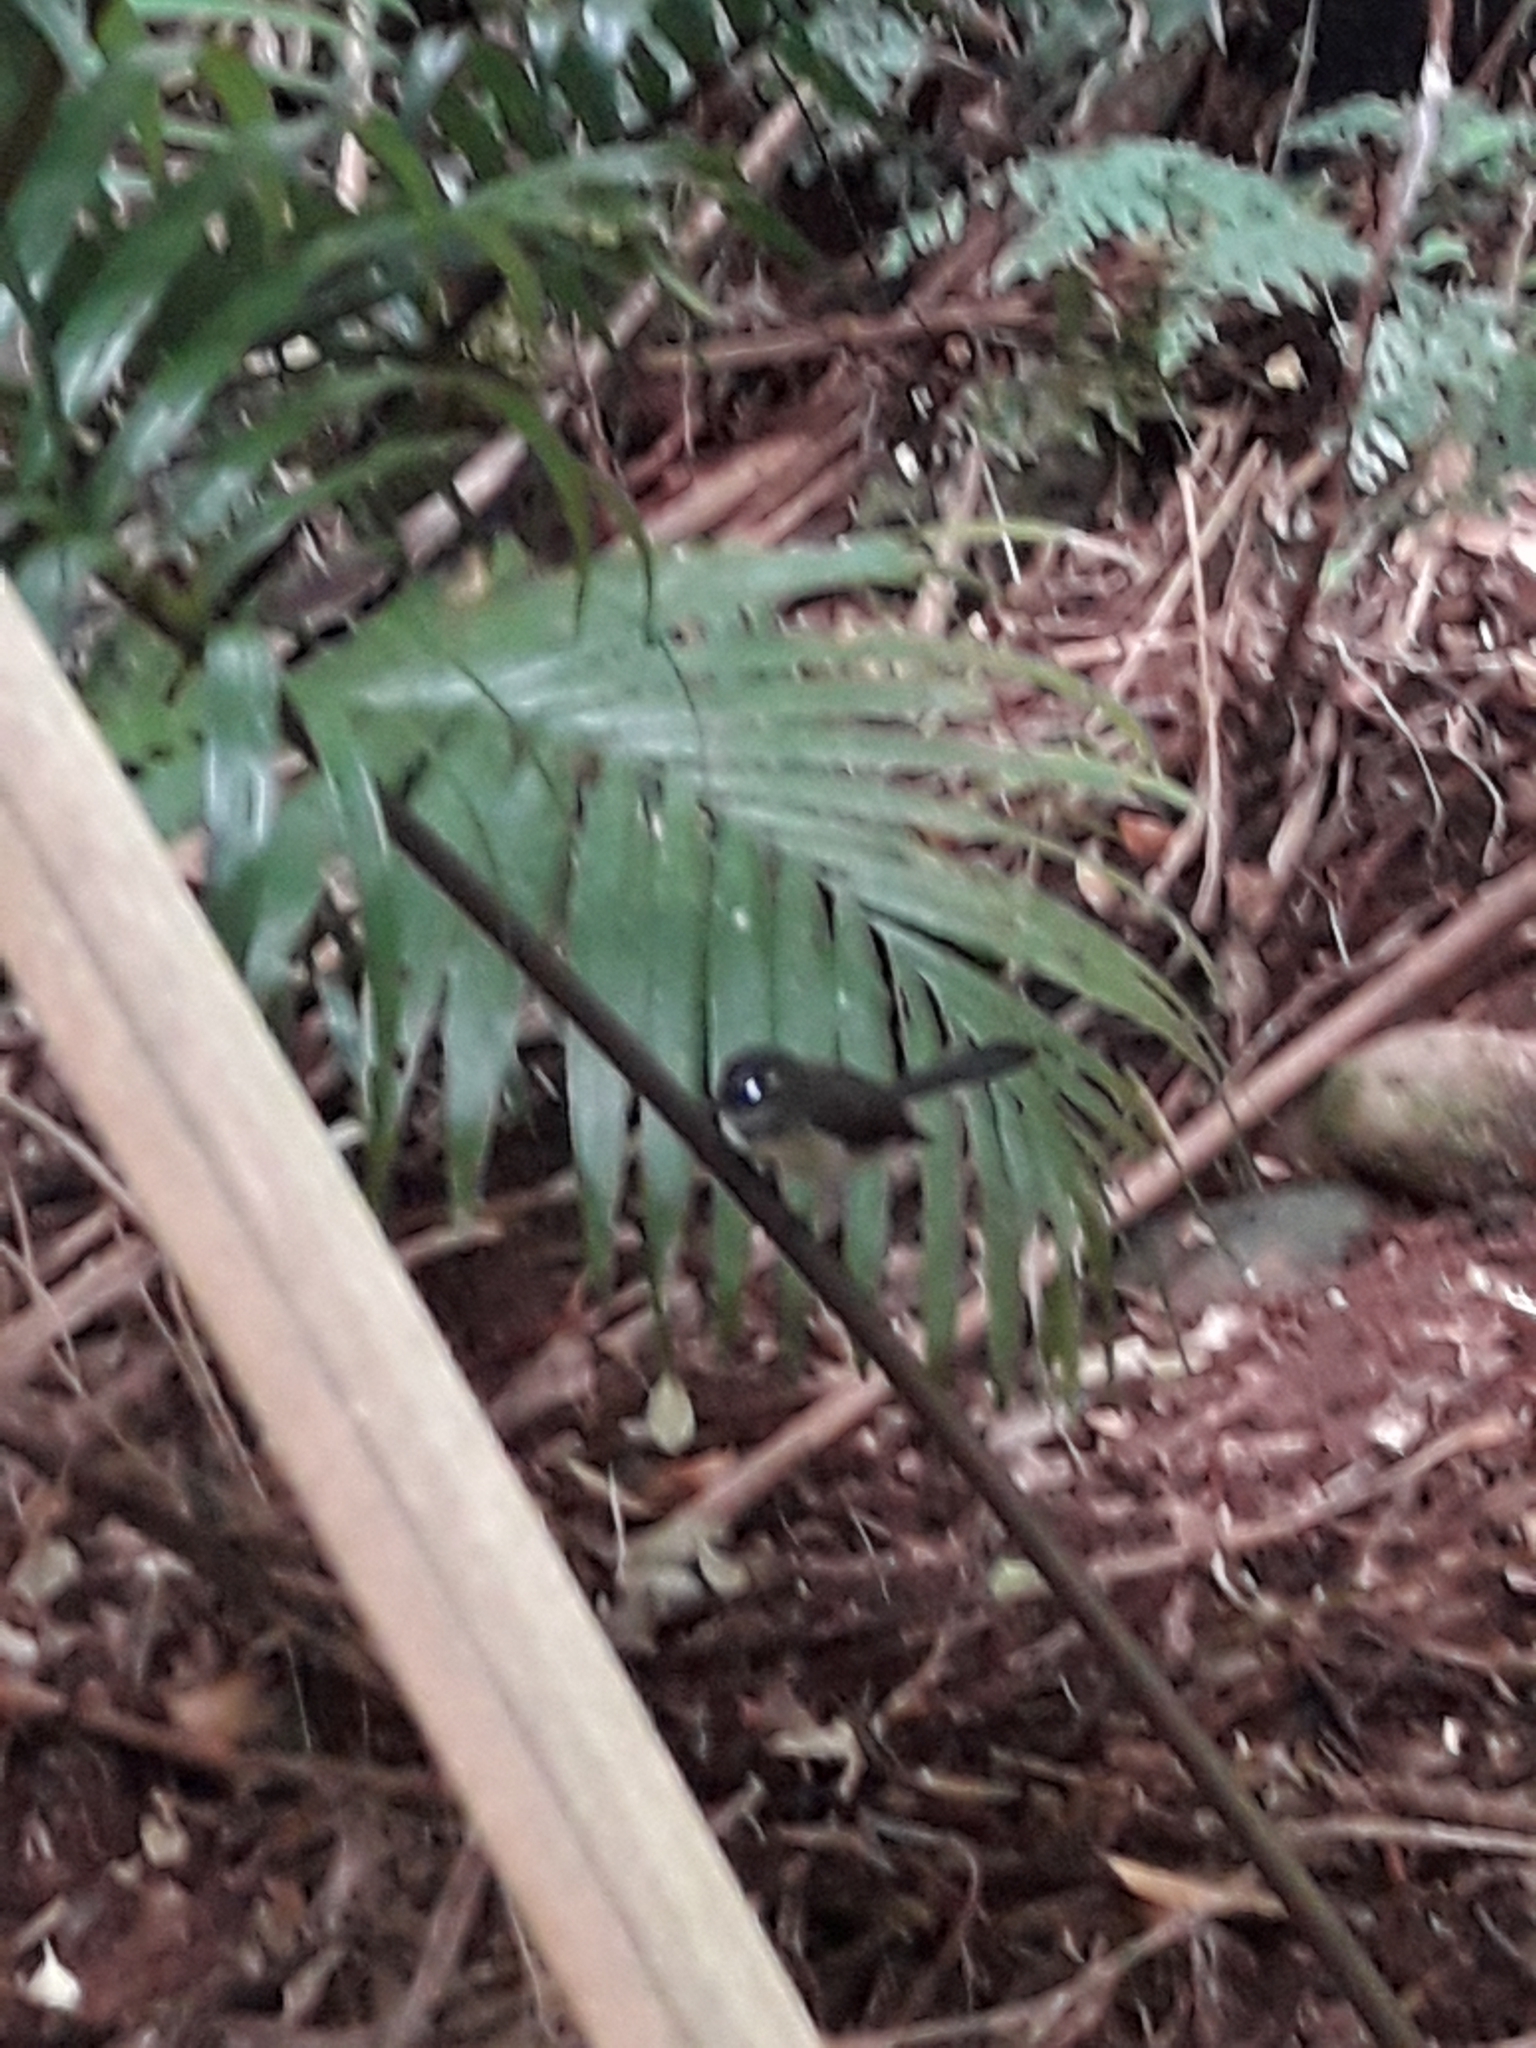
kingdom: Animalia
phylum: Chordata
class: Aves
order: Passeriformes
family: Rhipiduridae
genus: Rhipidura
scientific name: Rhipidura albiscapa
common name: Grey fantail
